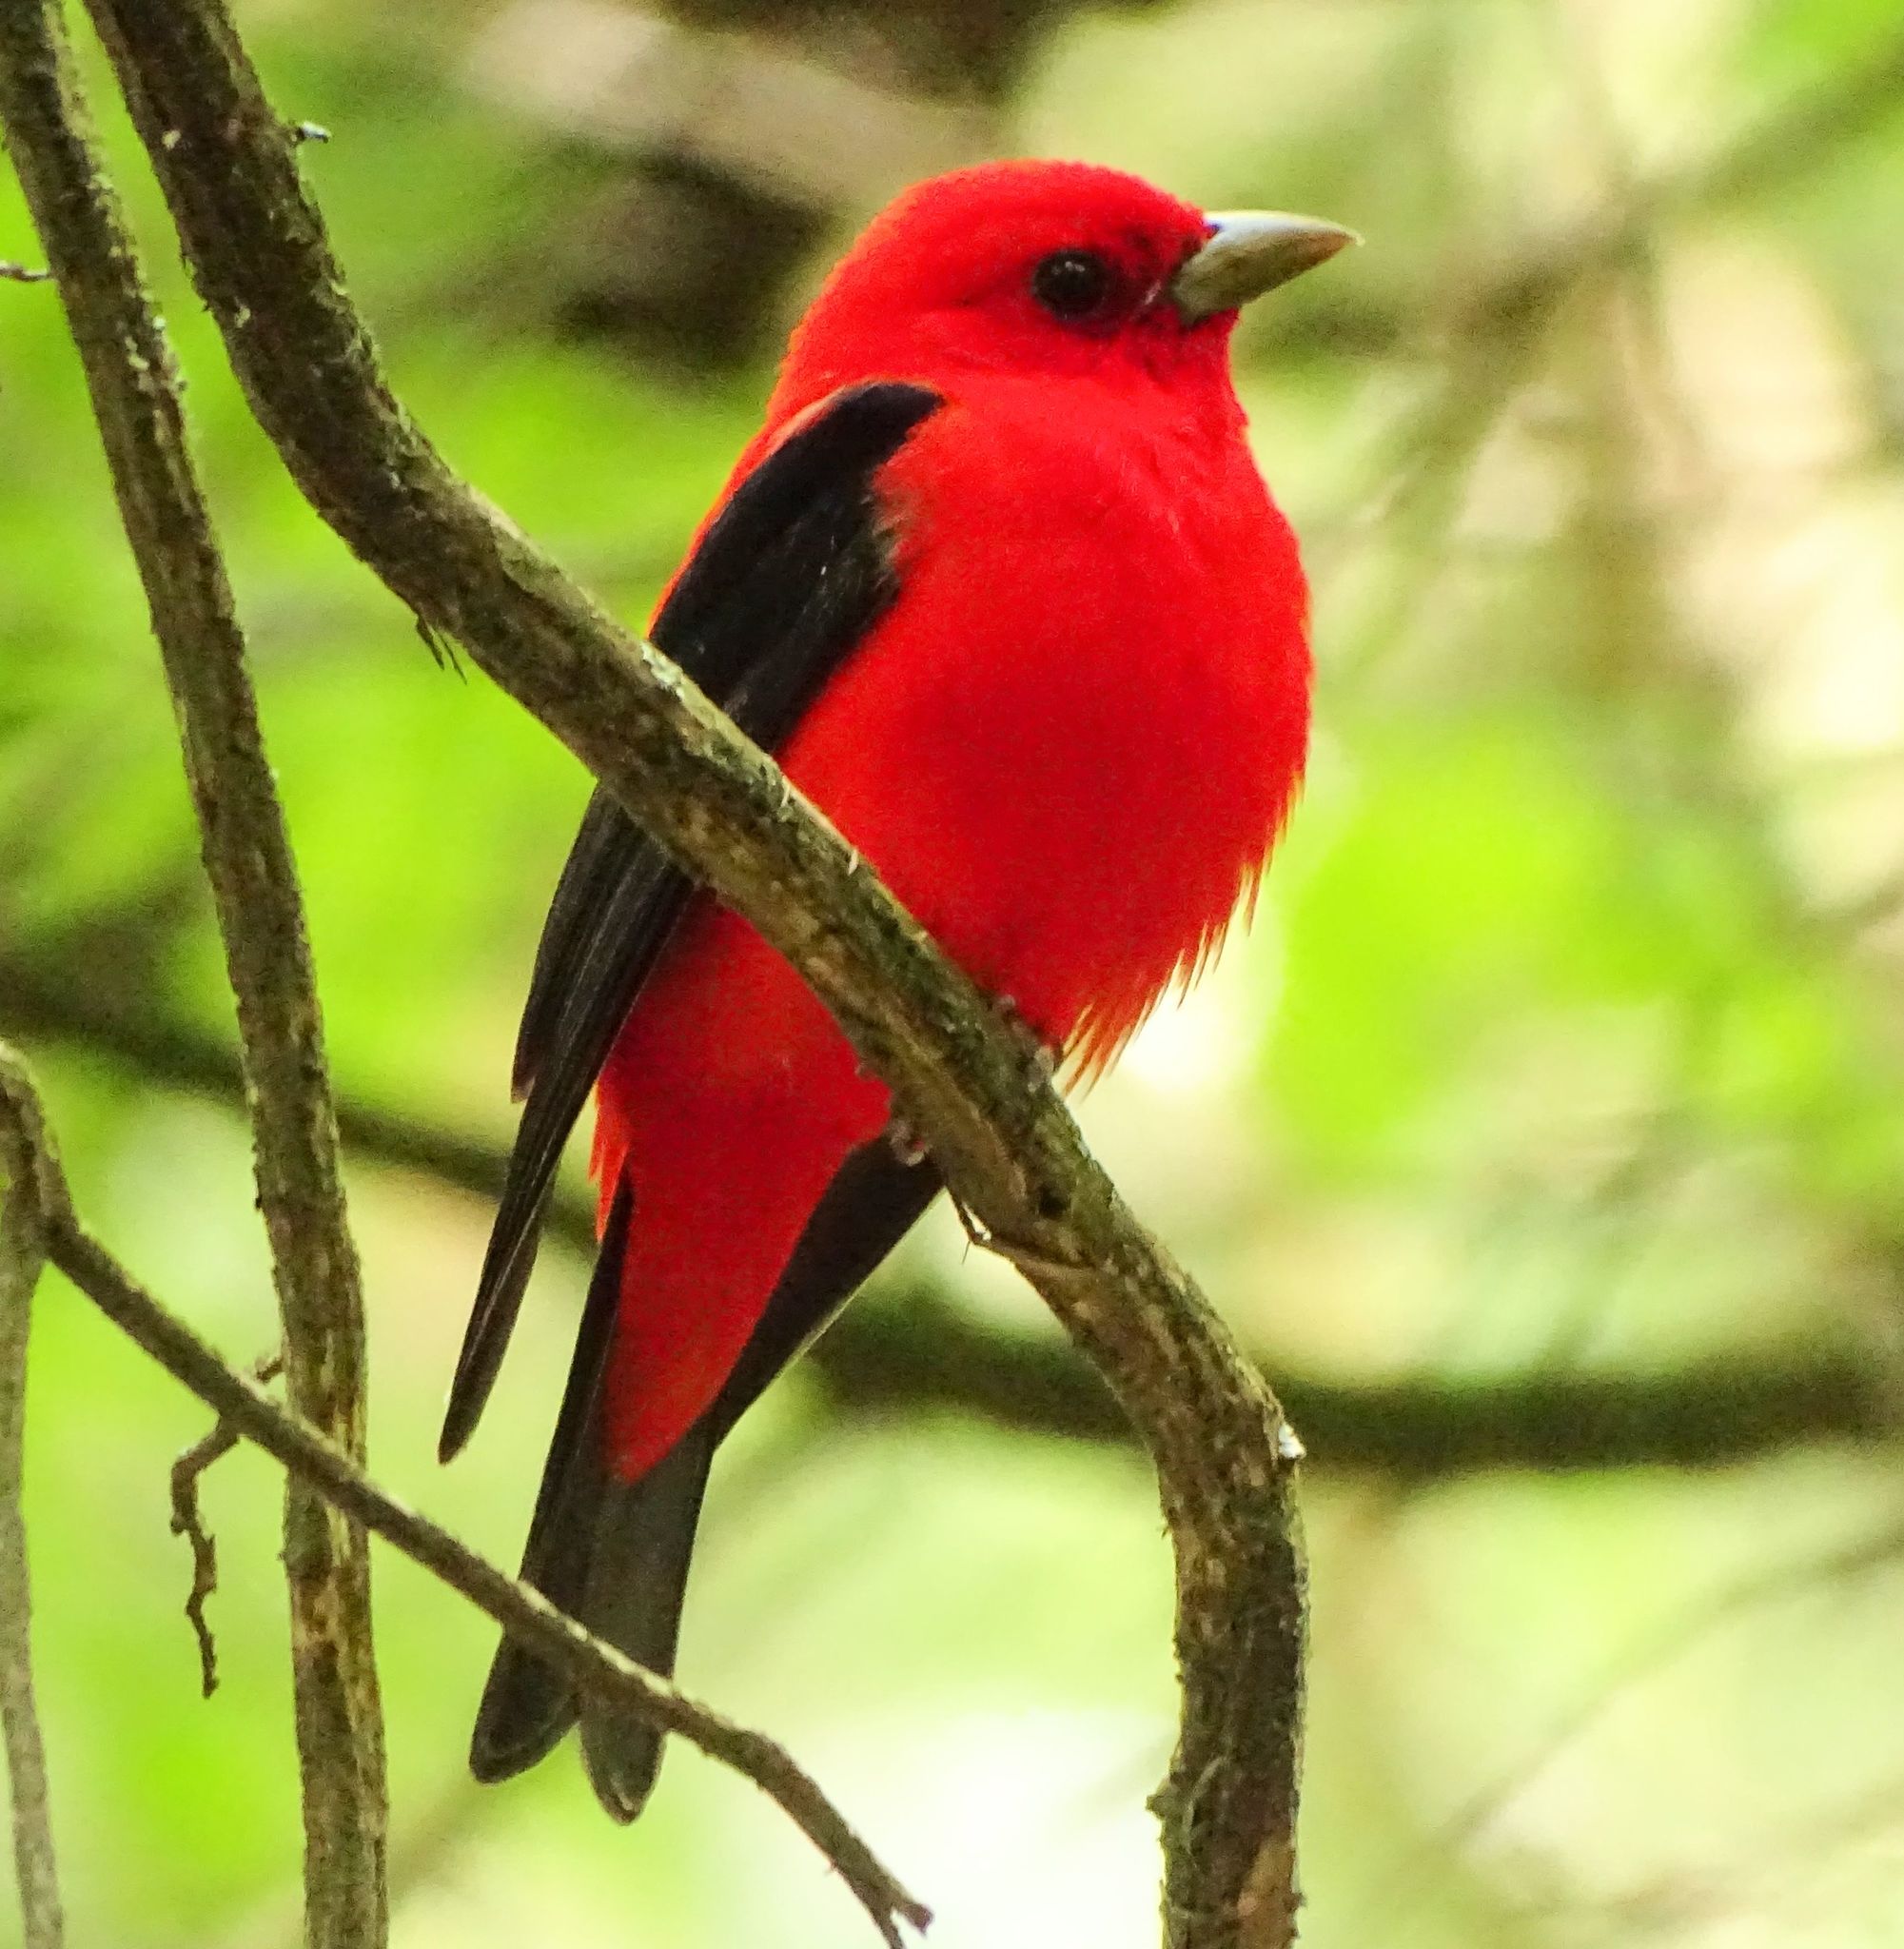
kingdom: Animalia
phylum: Chordata
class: Aves
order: Passeriformes
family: Cardinalidae
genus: Piranga
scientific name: Piranga olivacea
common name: Scarlet tanager
